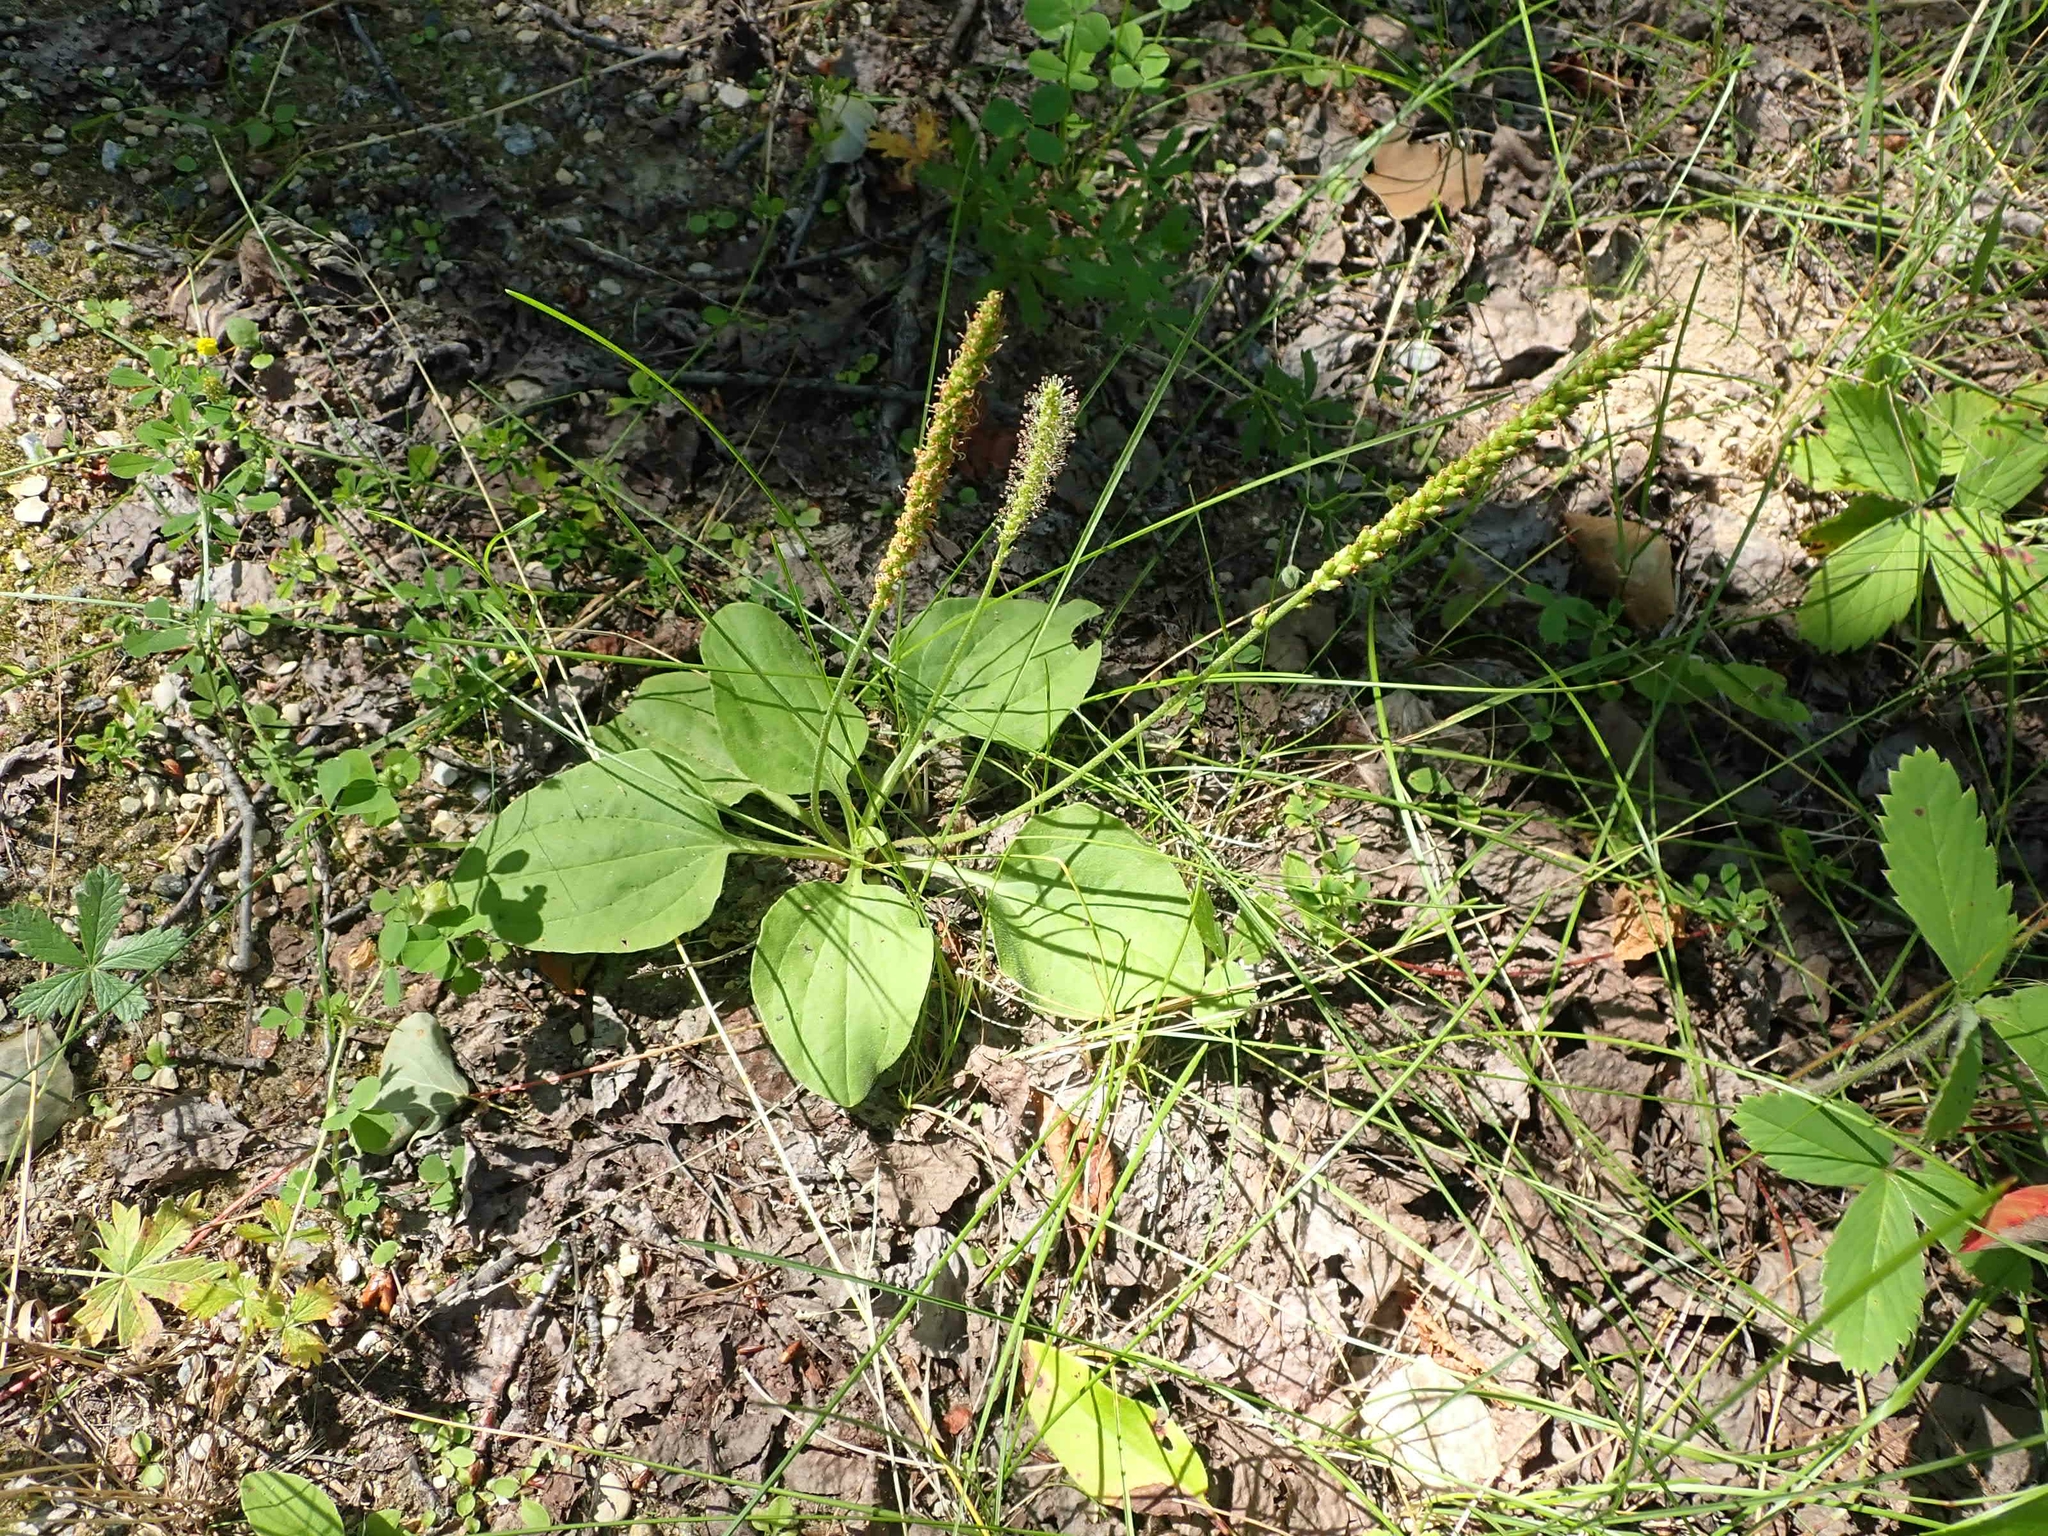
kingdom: Plantae
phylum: Tracheophyta
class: Magnoliopsida
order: Lamiales
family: Plantaginaceae
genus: Plantago
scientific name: Plantago major
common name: Common plantain
